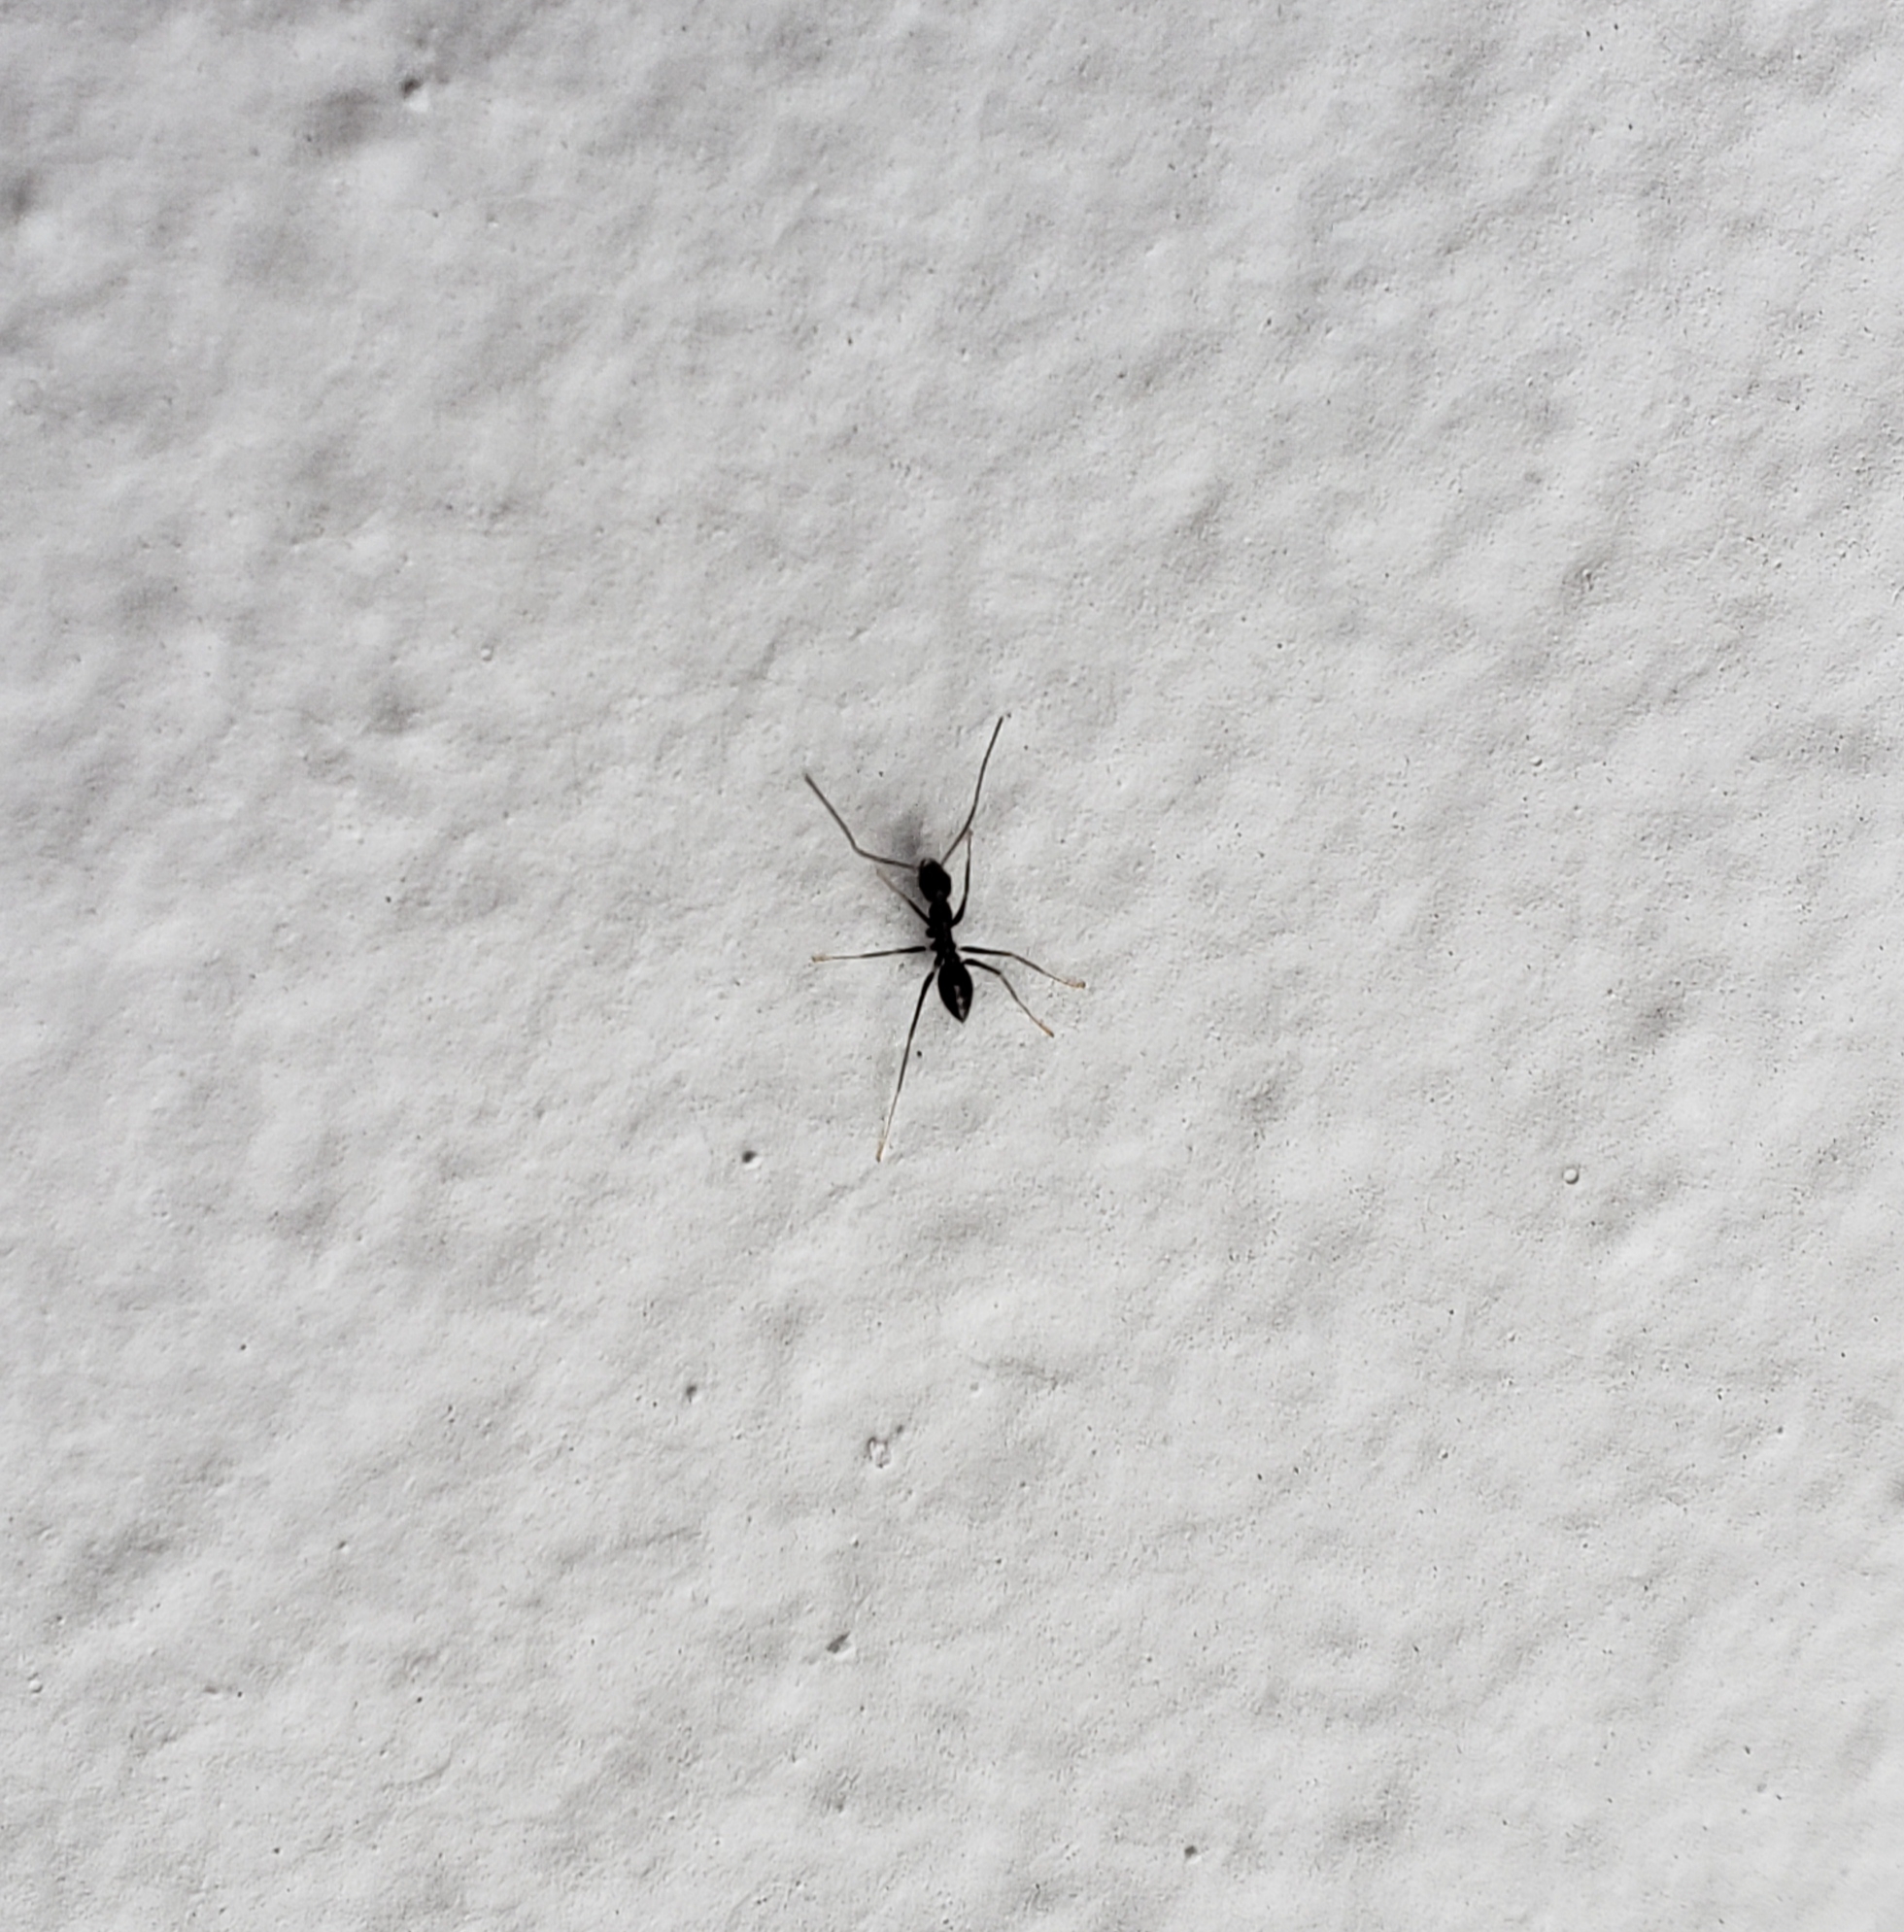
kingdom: Animalia
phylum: Arthropoda
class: Insecta
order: Hymenoptera
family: Formicidae
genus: Paratrechina
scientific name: Paratrechina longicornis
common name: Longhorned crazy ant
